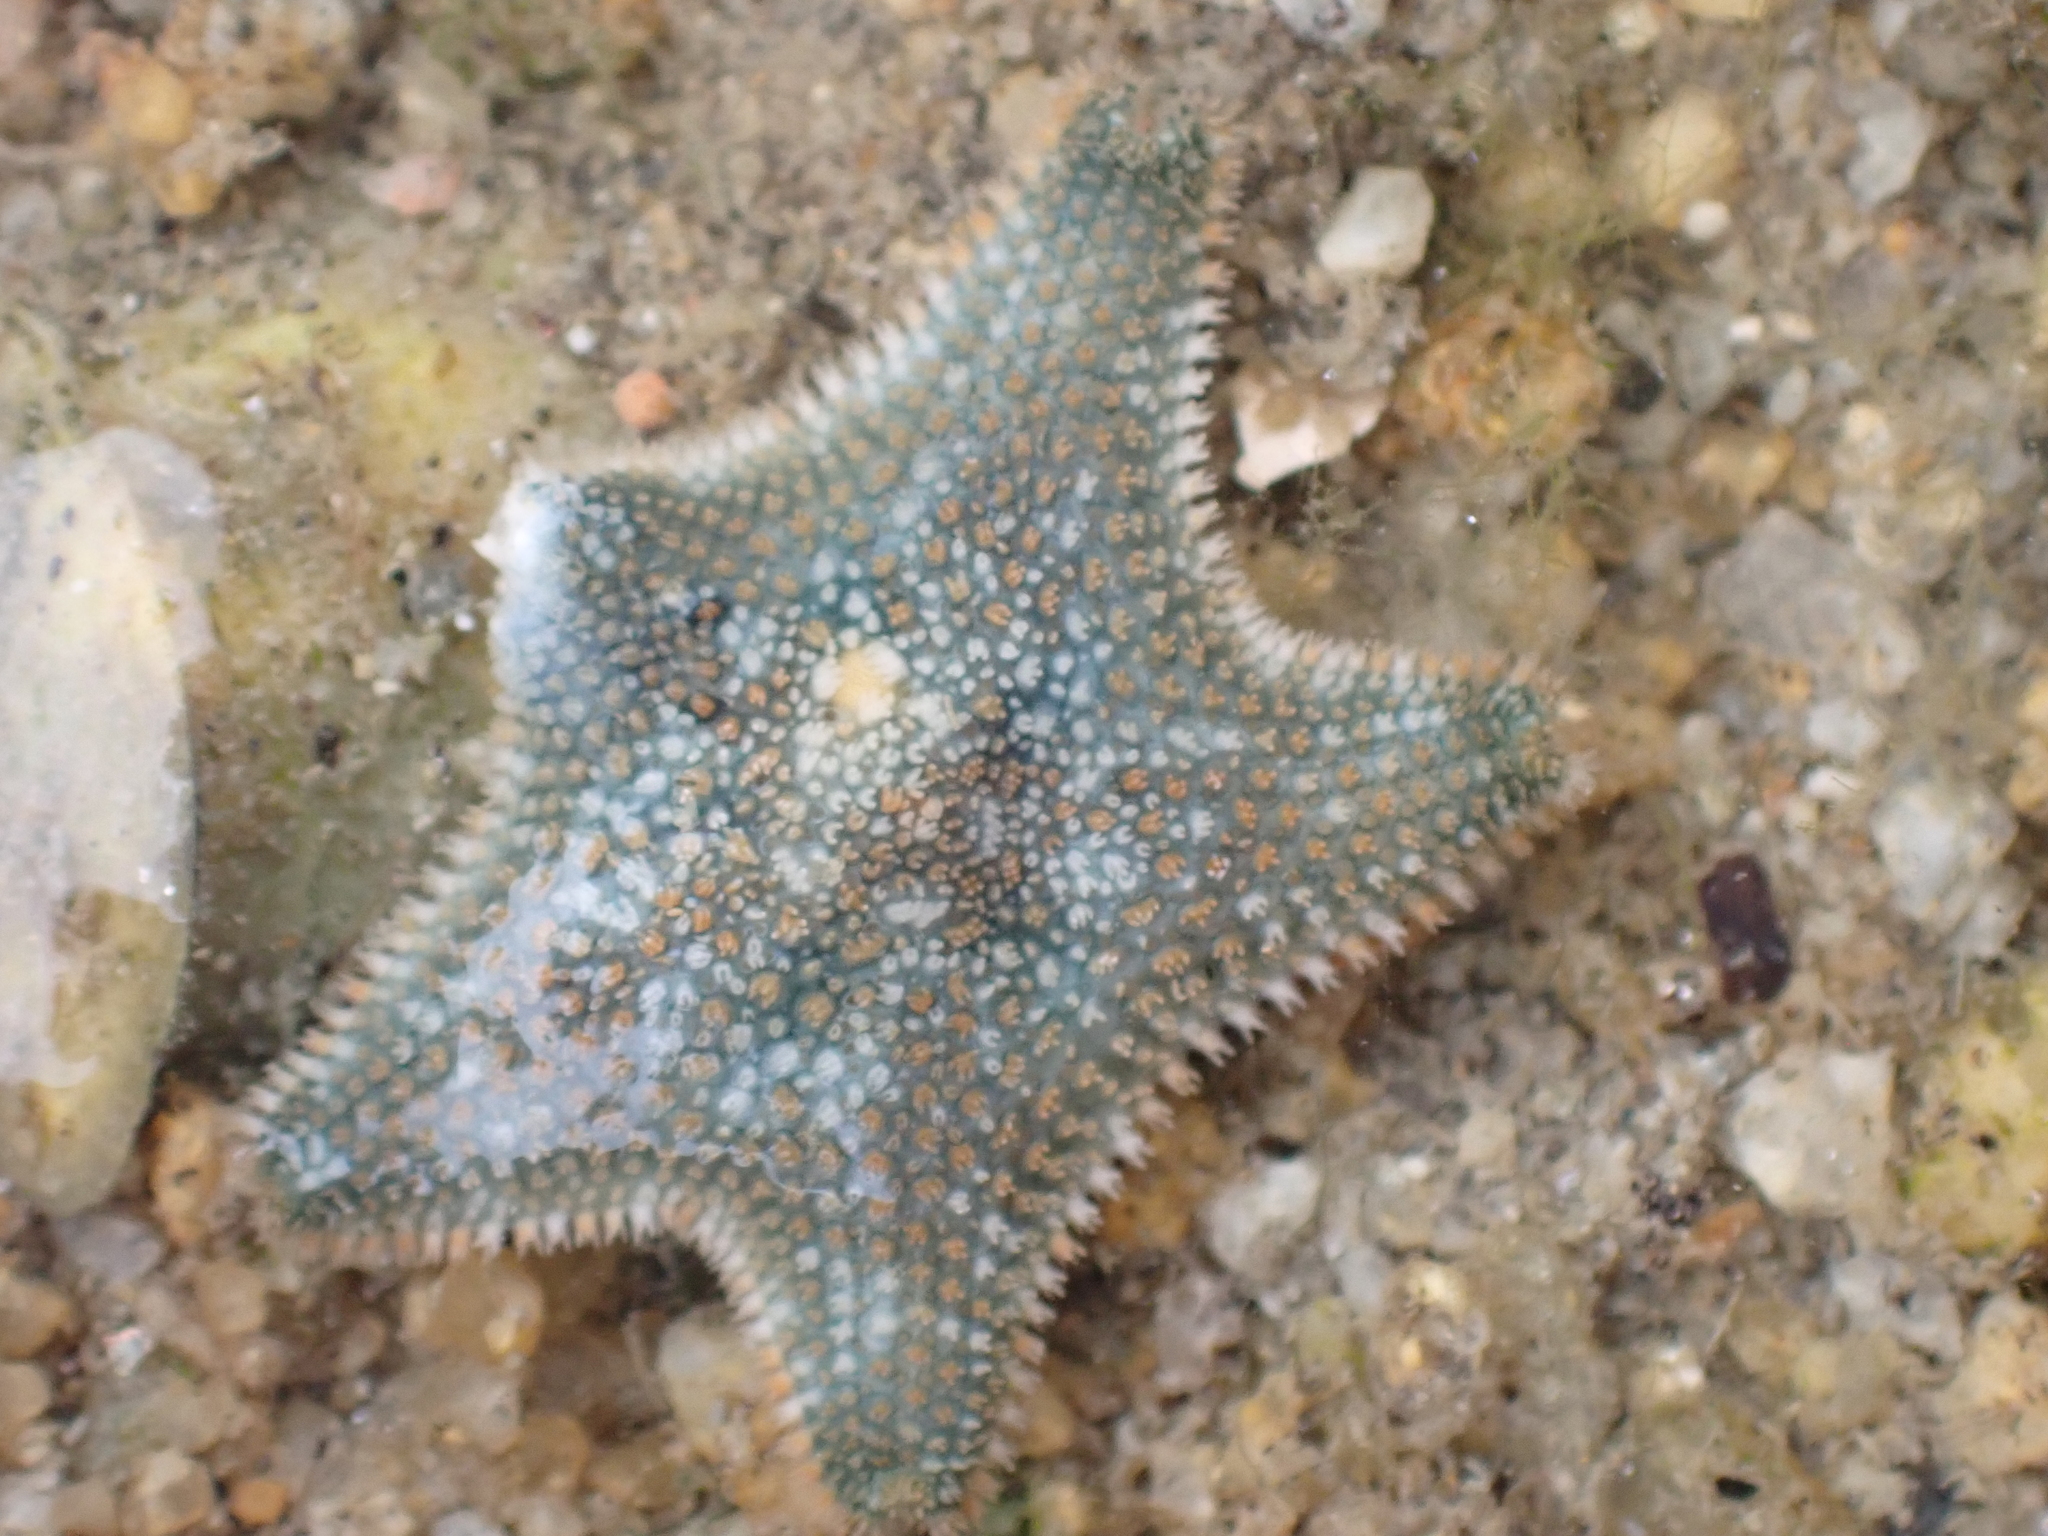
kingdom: Animalia
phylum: Echinodermata
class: Asteroidea
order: Valvatida
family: Asterinidae
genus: Asterina
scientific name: Asterina gibbosa
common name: Cushion star
